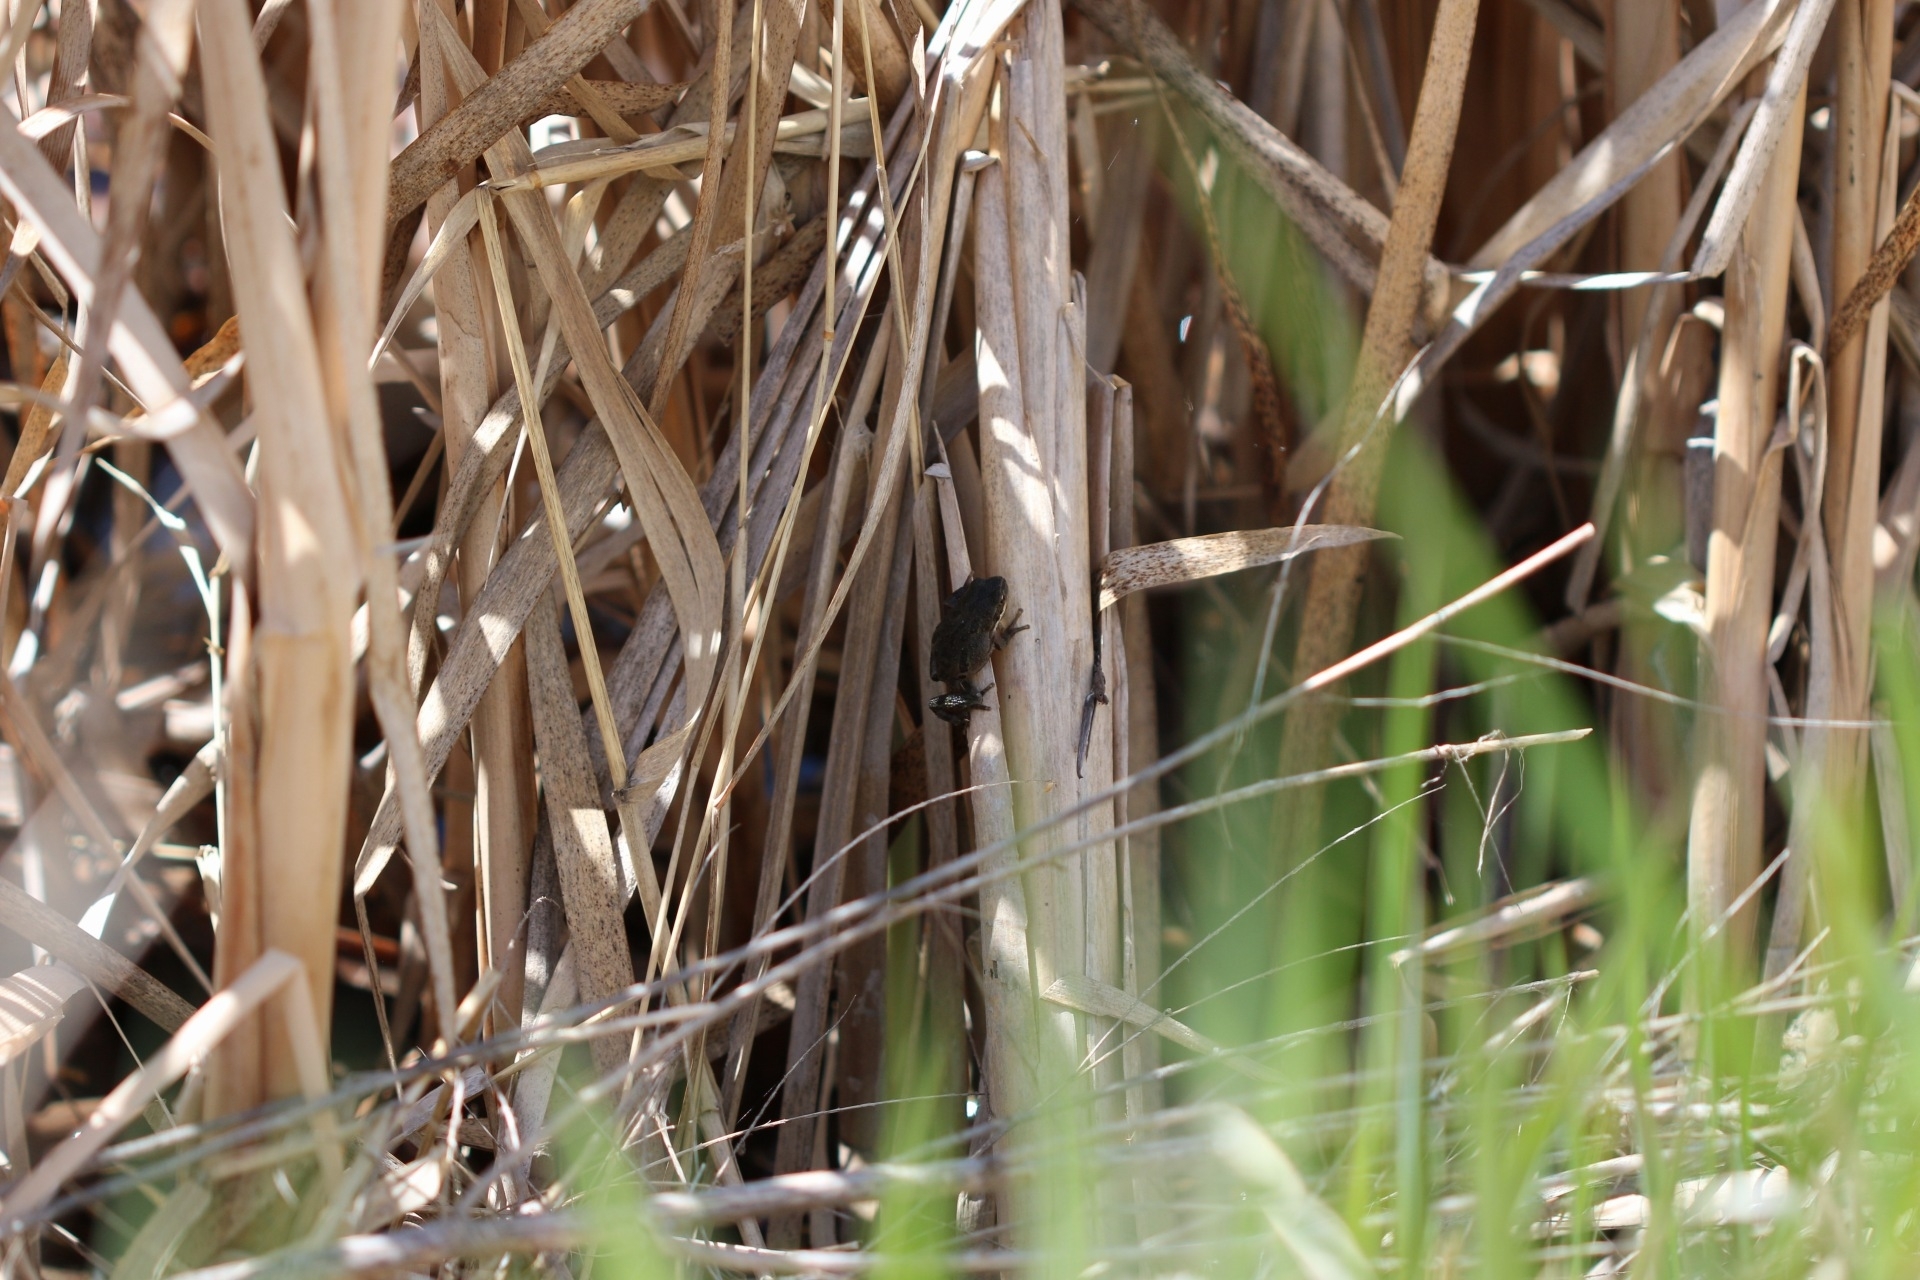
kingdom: Animalia
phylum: Chordata
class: Amphibia
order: Anura
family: Hylidae
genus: Pseudacris
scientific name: Pseudacris regilla
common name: Pacific chorus frog
